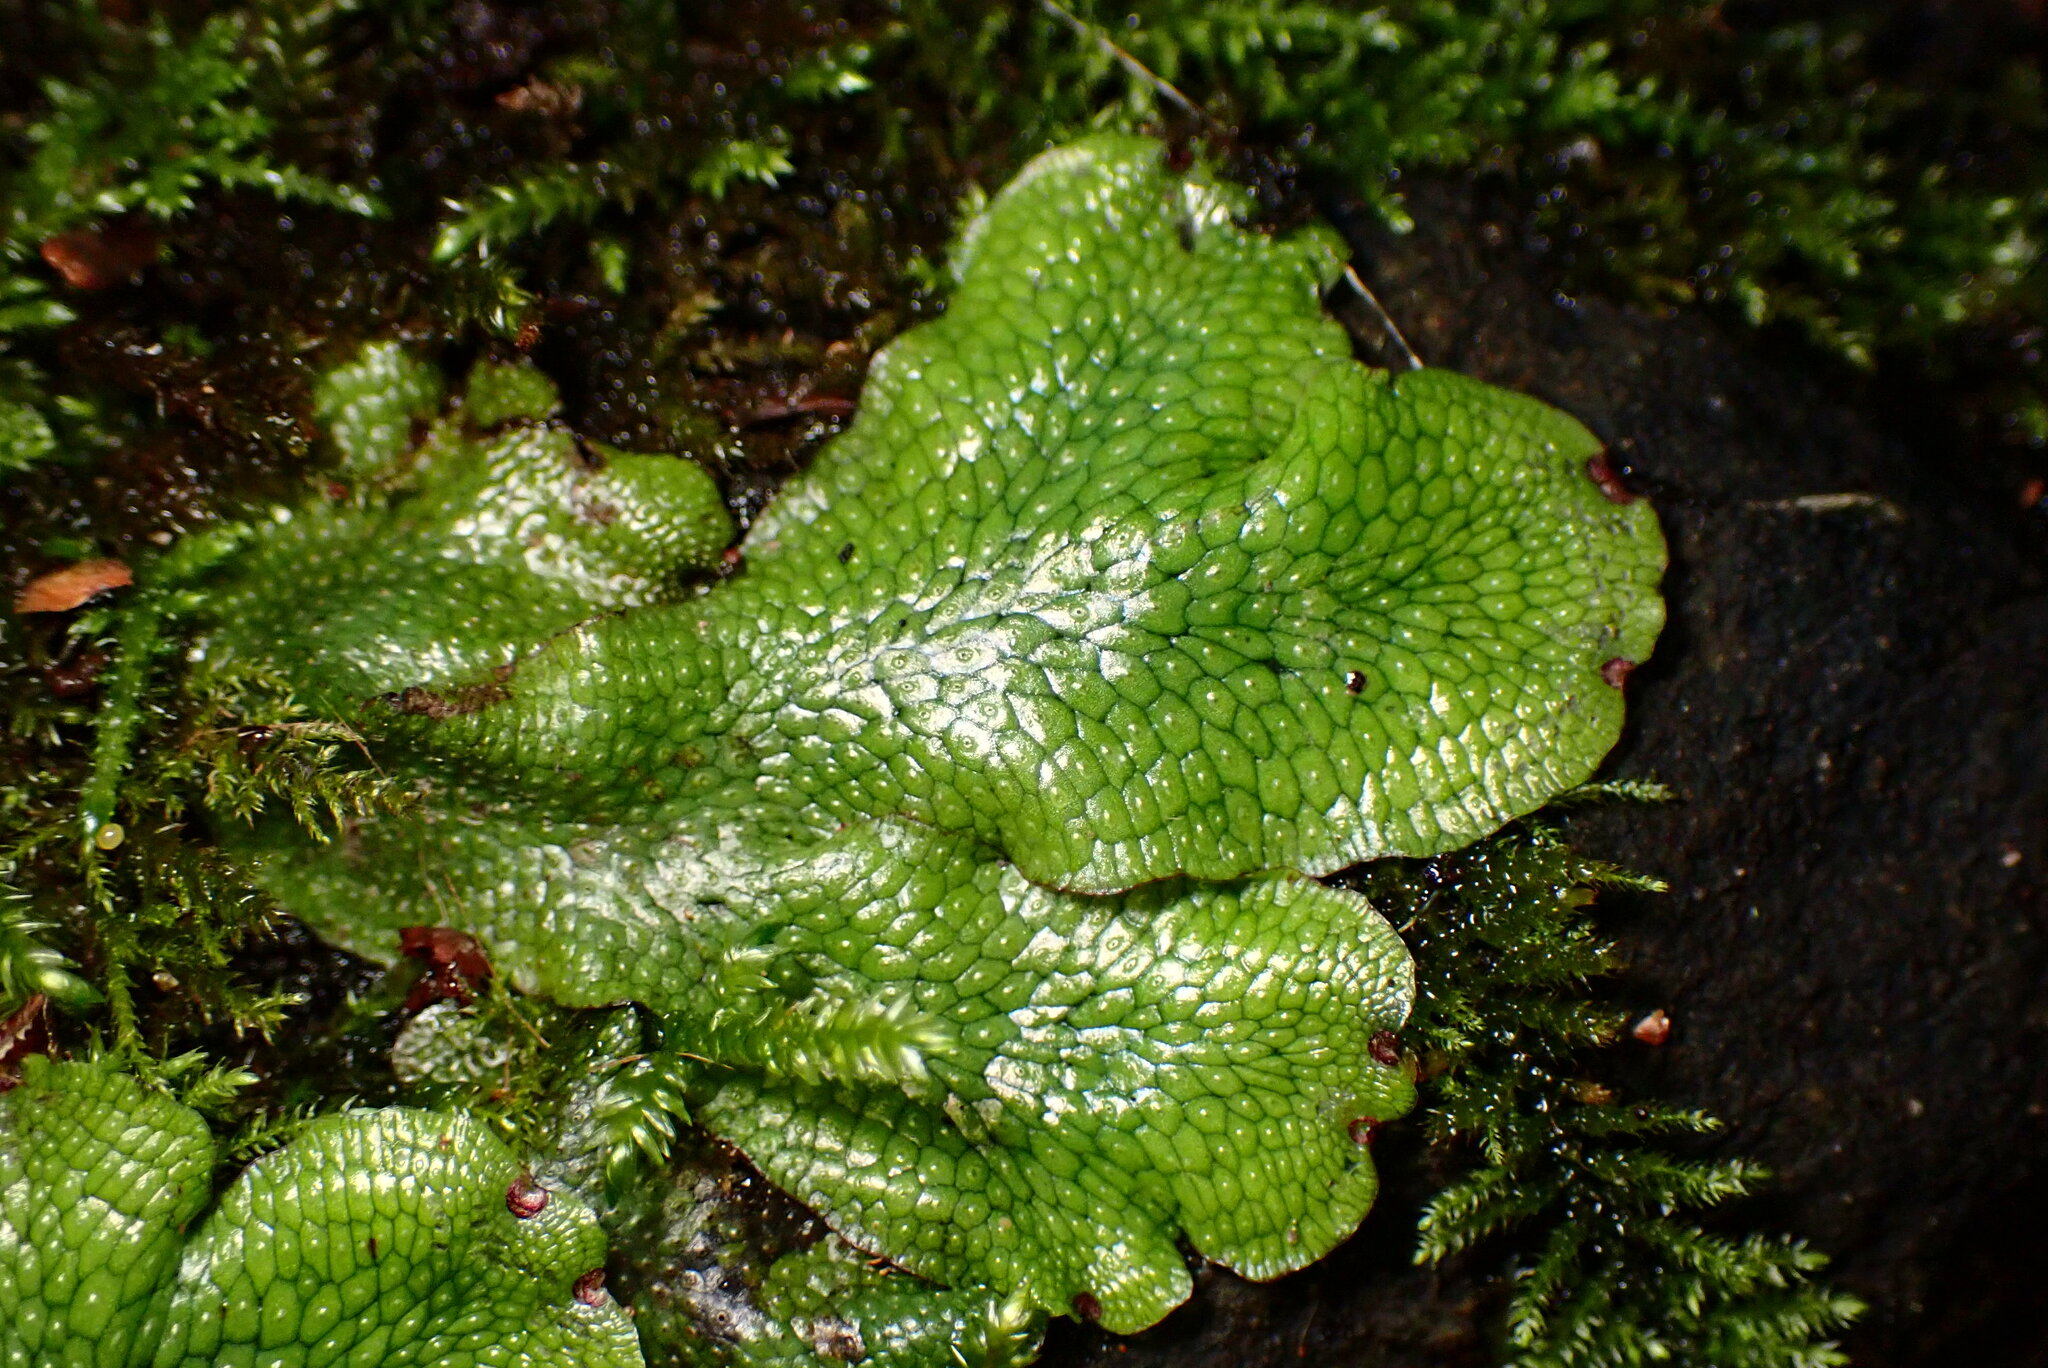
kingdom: Plantae
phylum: Marchantiophyta
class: Marchantiopsida
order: Marchantiales
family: Conocephalaceae
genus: Conocephalum
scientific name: Conocephalum salebrosum
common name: Cat-tongue liverwort
